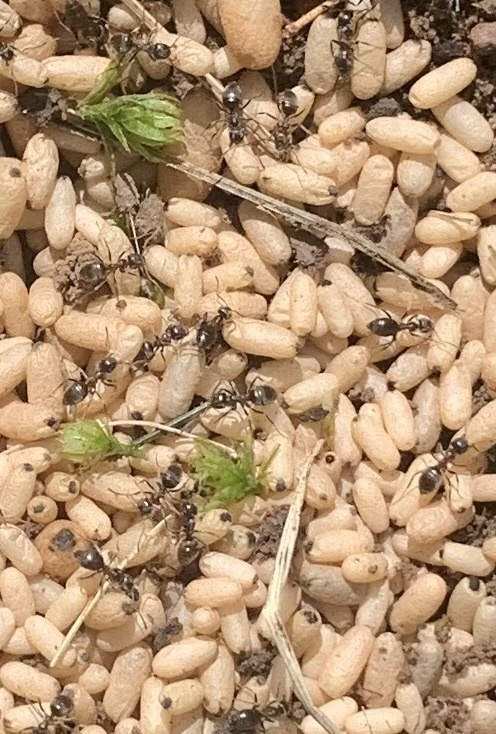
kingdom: Animalia
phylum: Arthropoda
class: Insecta
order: Hymenoptera
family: Formicidae
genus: Lasius
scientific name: Lasius americanus
